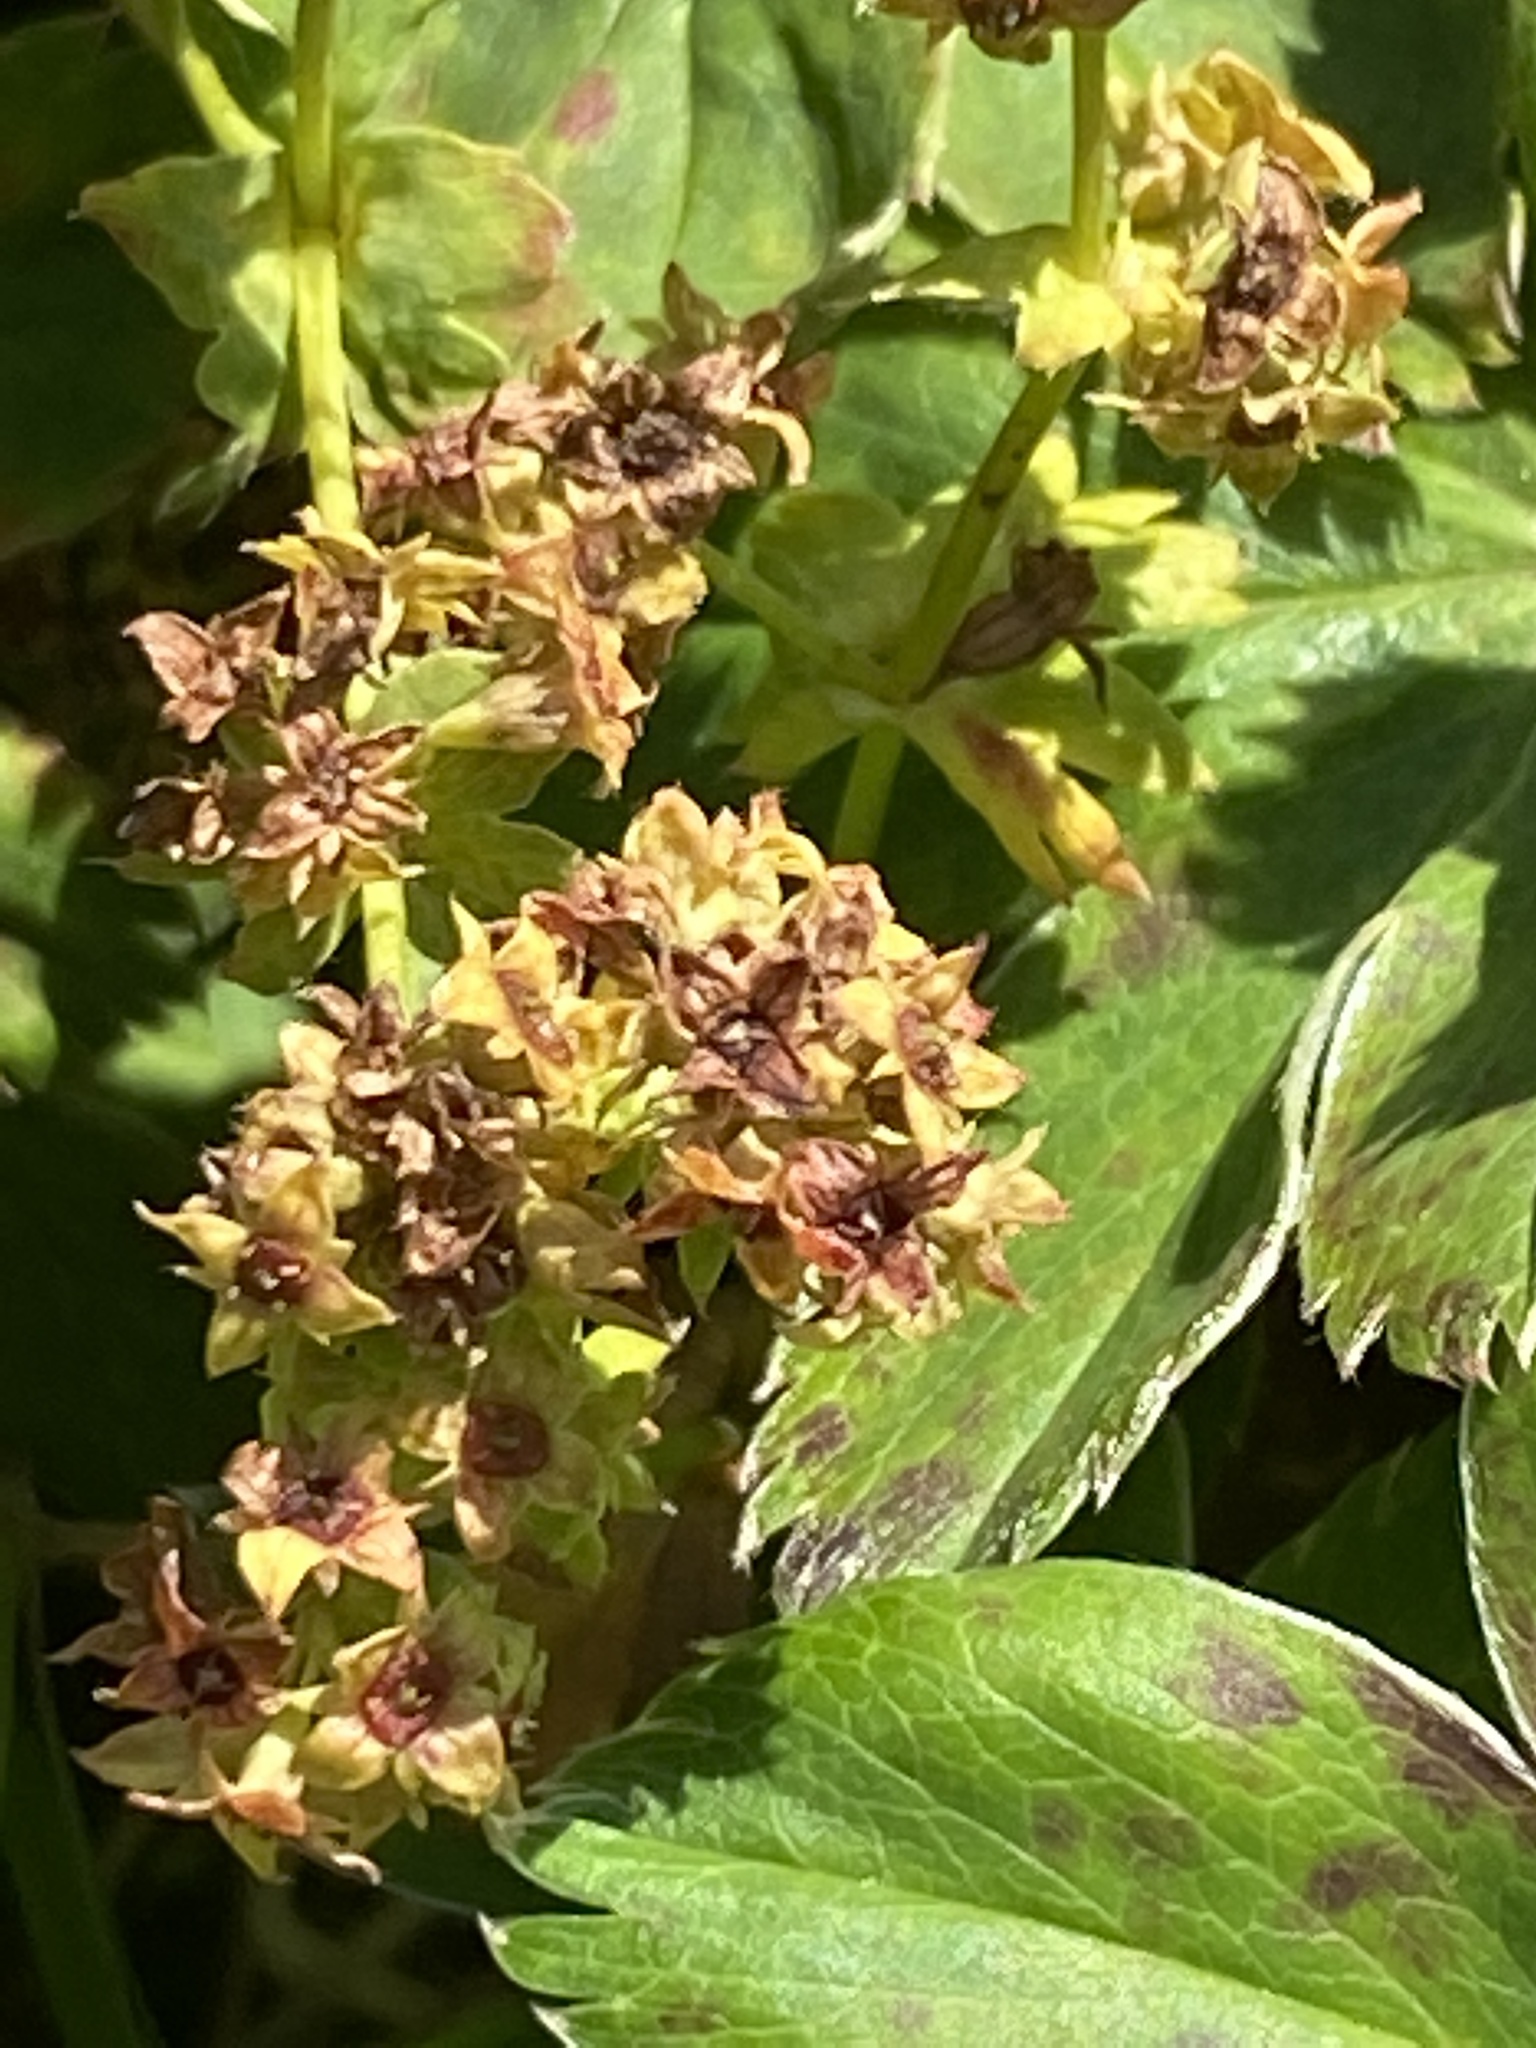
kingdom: Plantae
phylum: Tracheophyta
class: Magnoliopsida
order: Rosales
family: Rosaceae
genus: Alchemilla
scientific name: Alchemilla faeroensis
